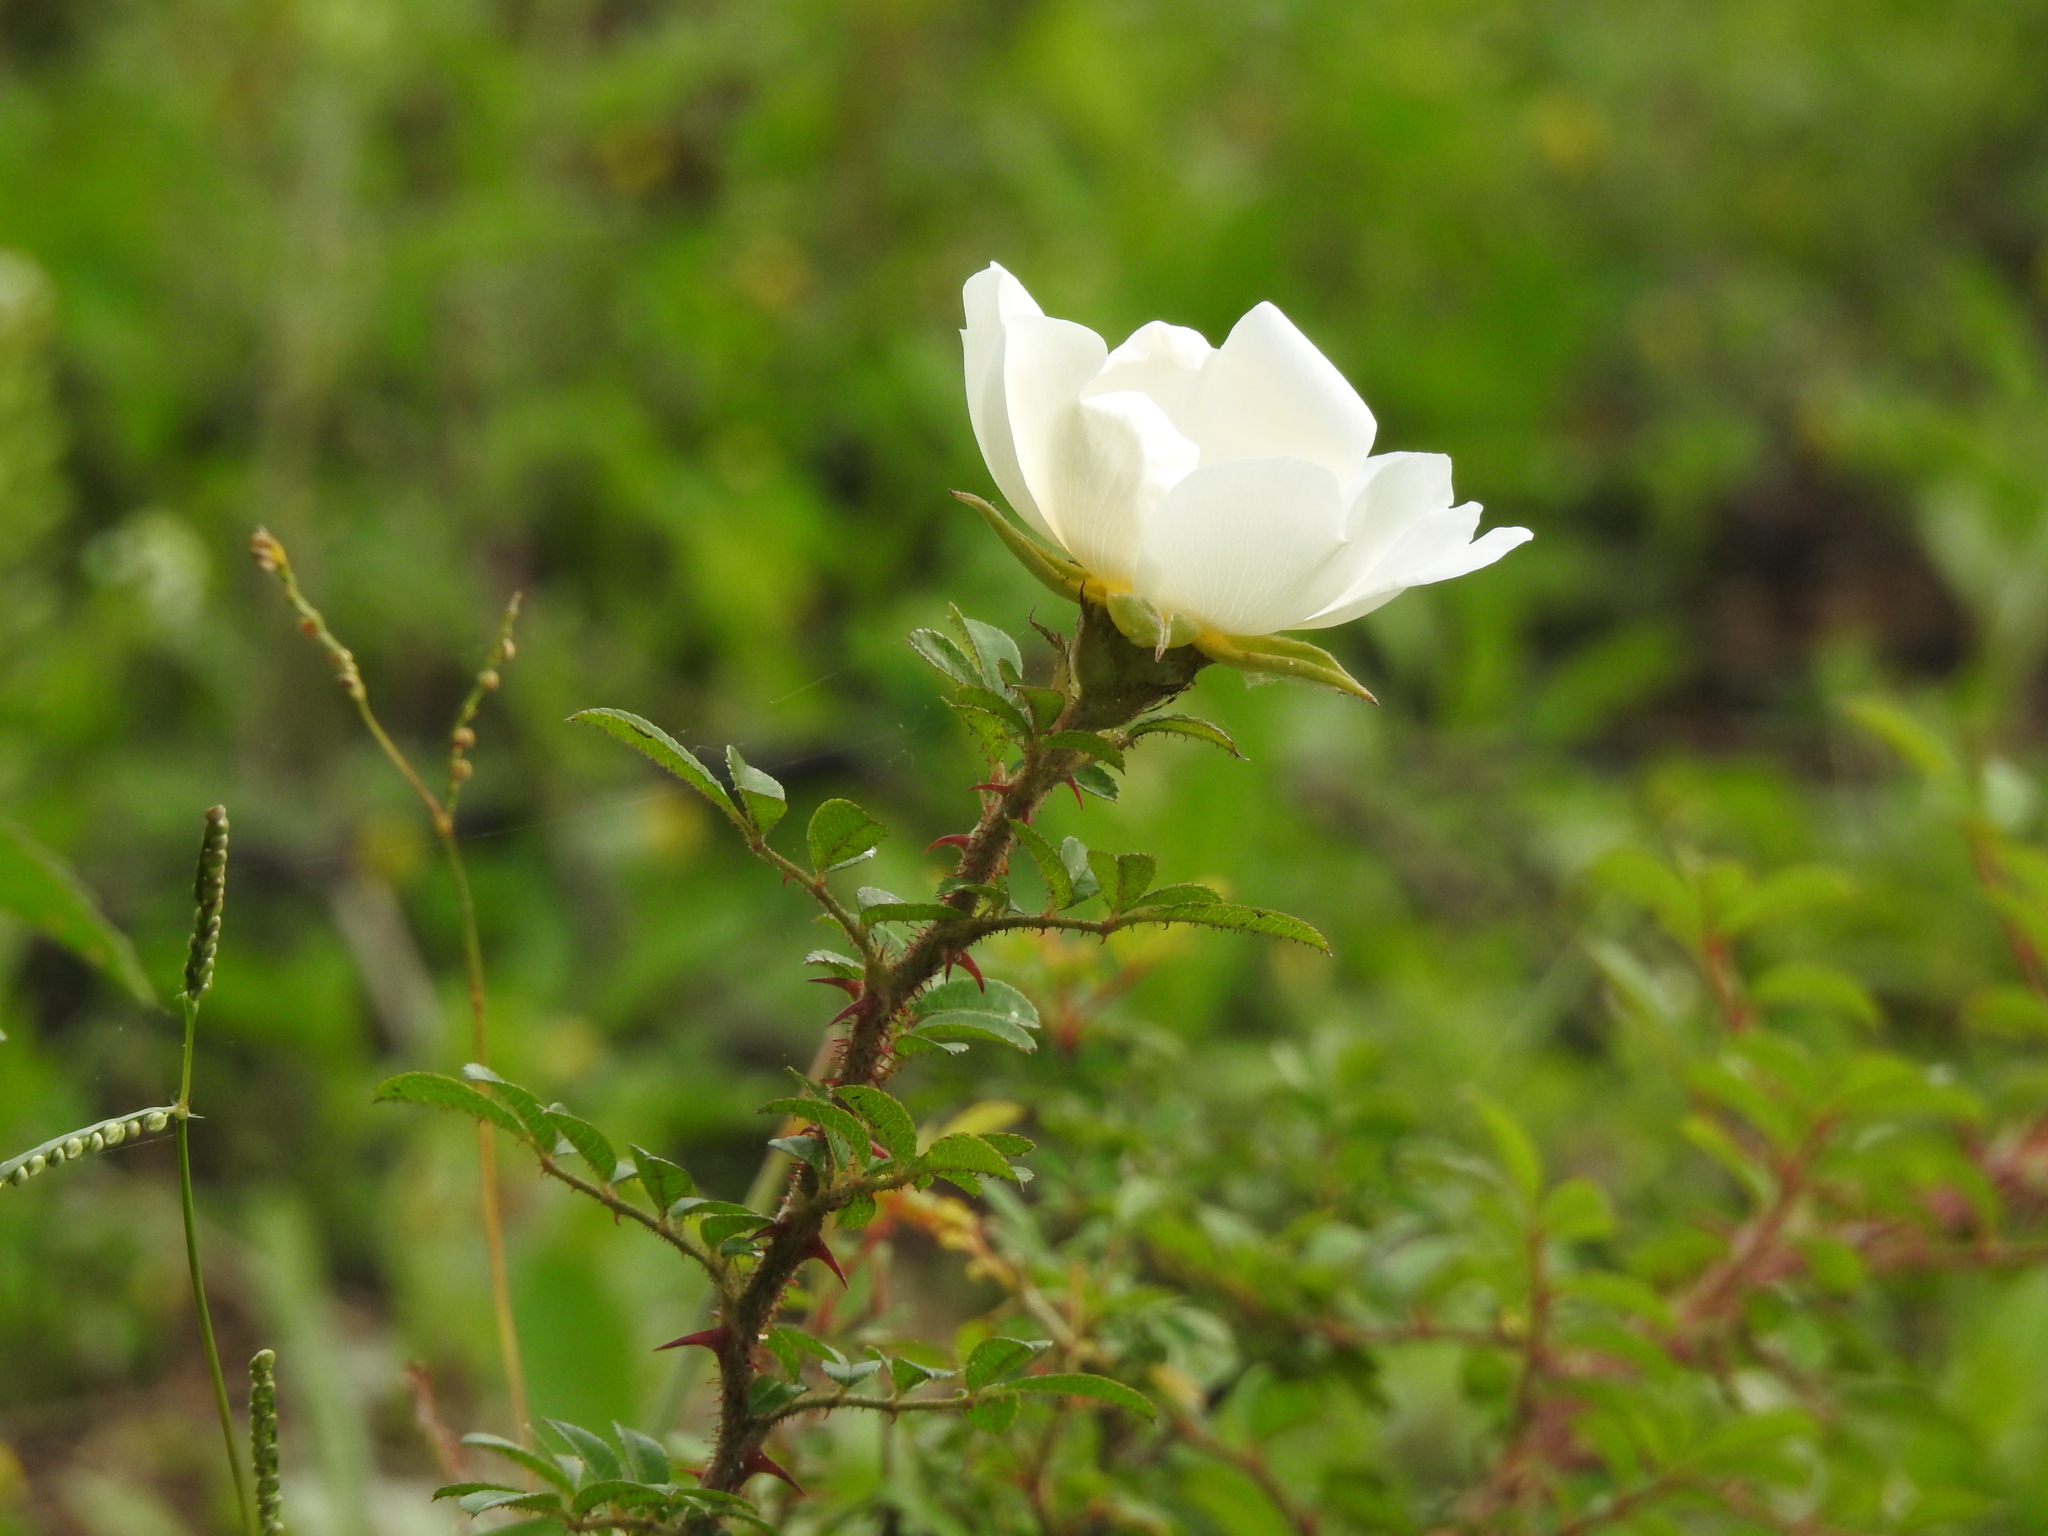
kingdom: Plantae
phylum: Tracheophyta
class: Magnoliopsida
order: Rosales
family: Rosaceae
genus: Rosa
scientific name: Rosa bracteata
